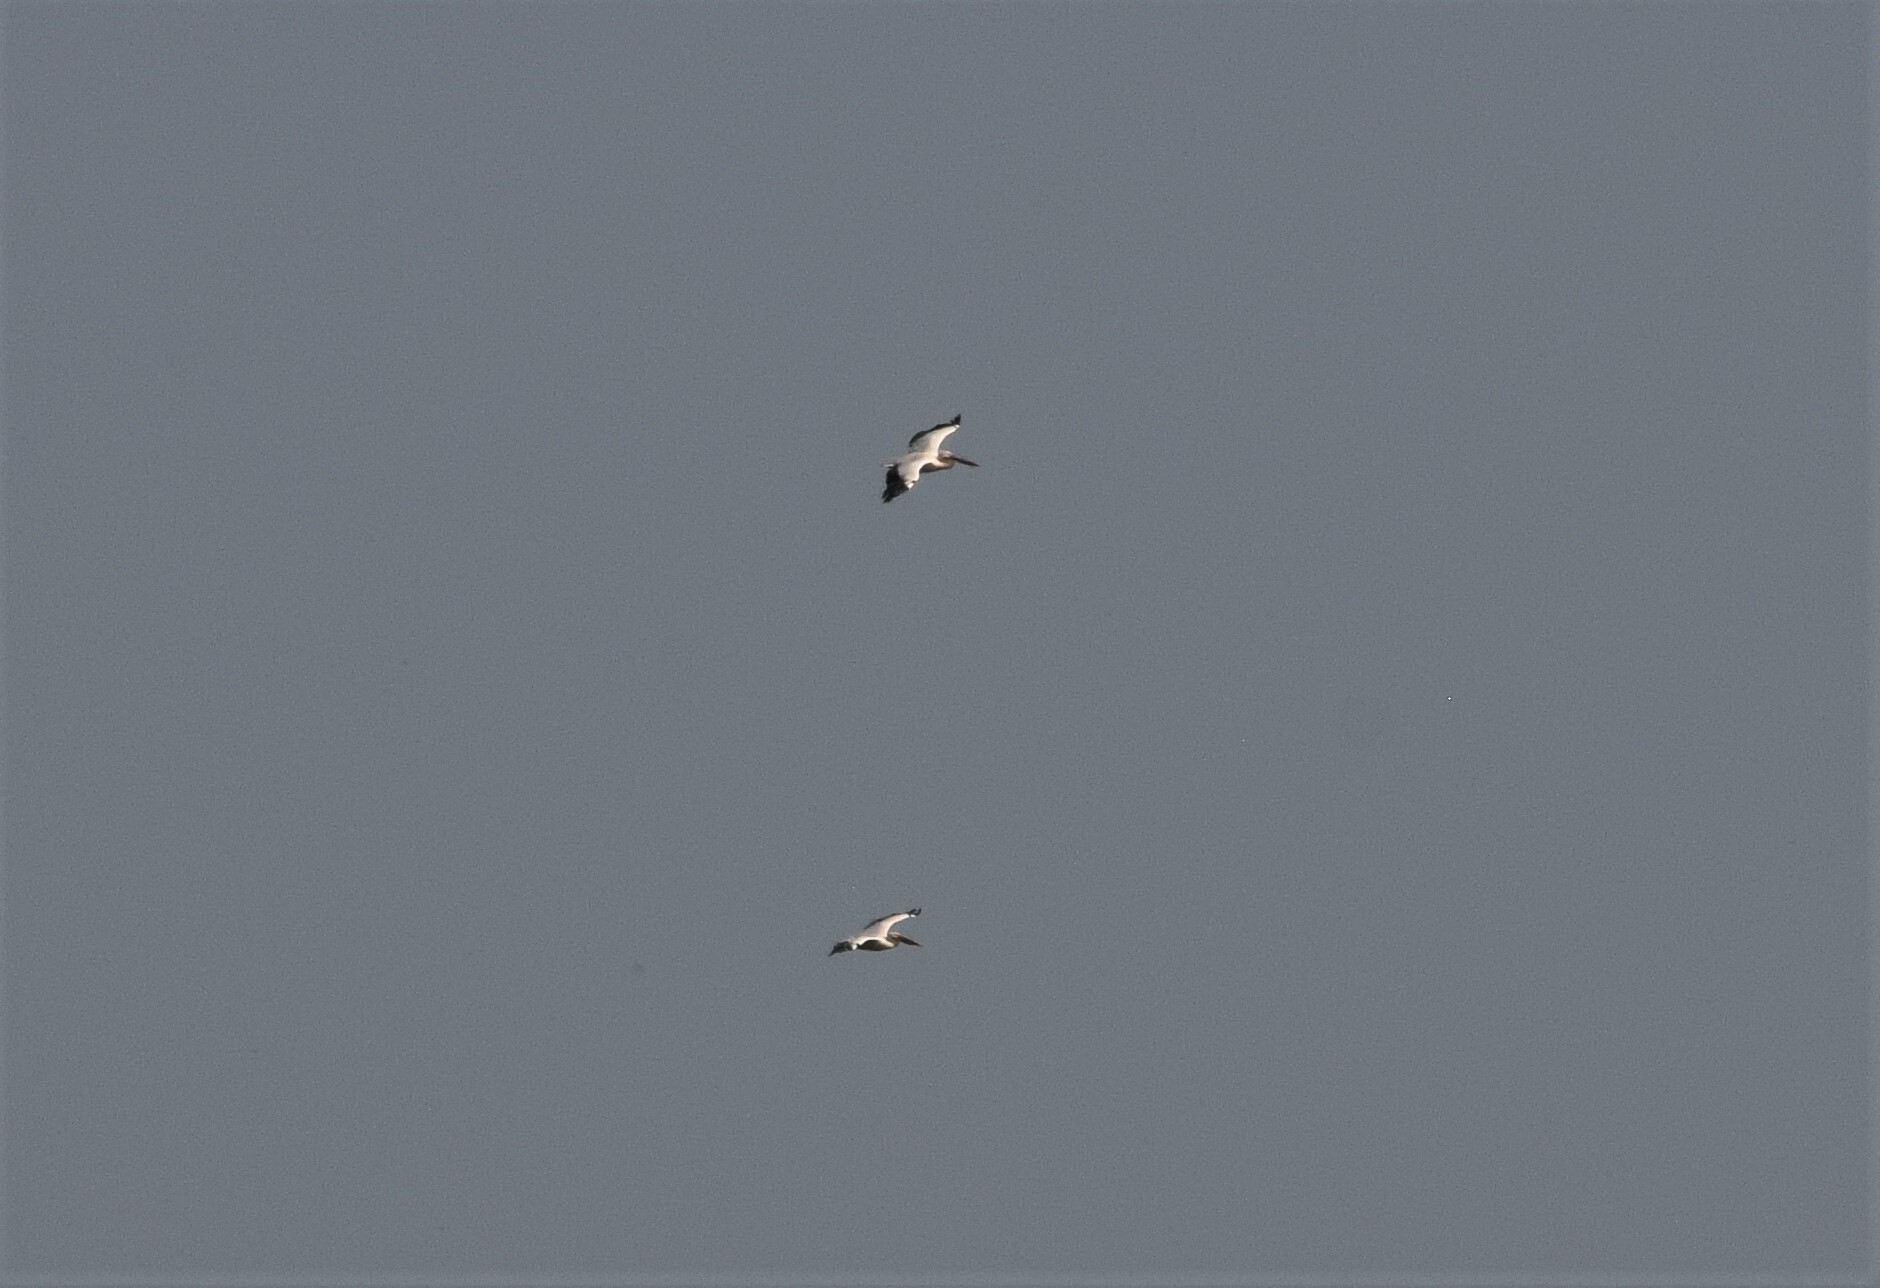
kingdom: Animalia
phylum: Chordata
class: Aves
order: Pelecaniformes
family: Pelecanidae
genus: Pelecanus
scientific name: Pelecanus onocrotalus
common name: Great white pelican
